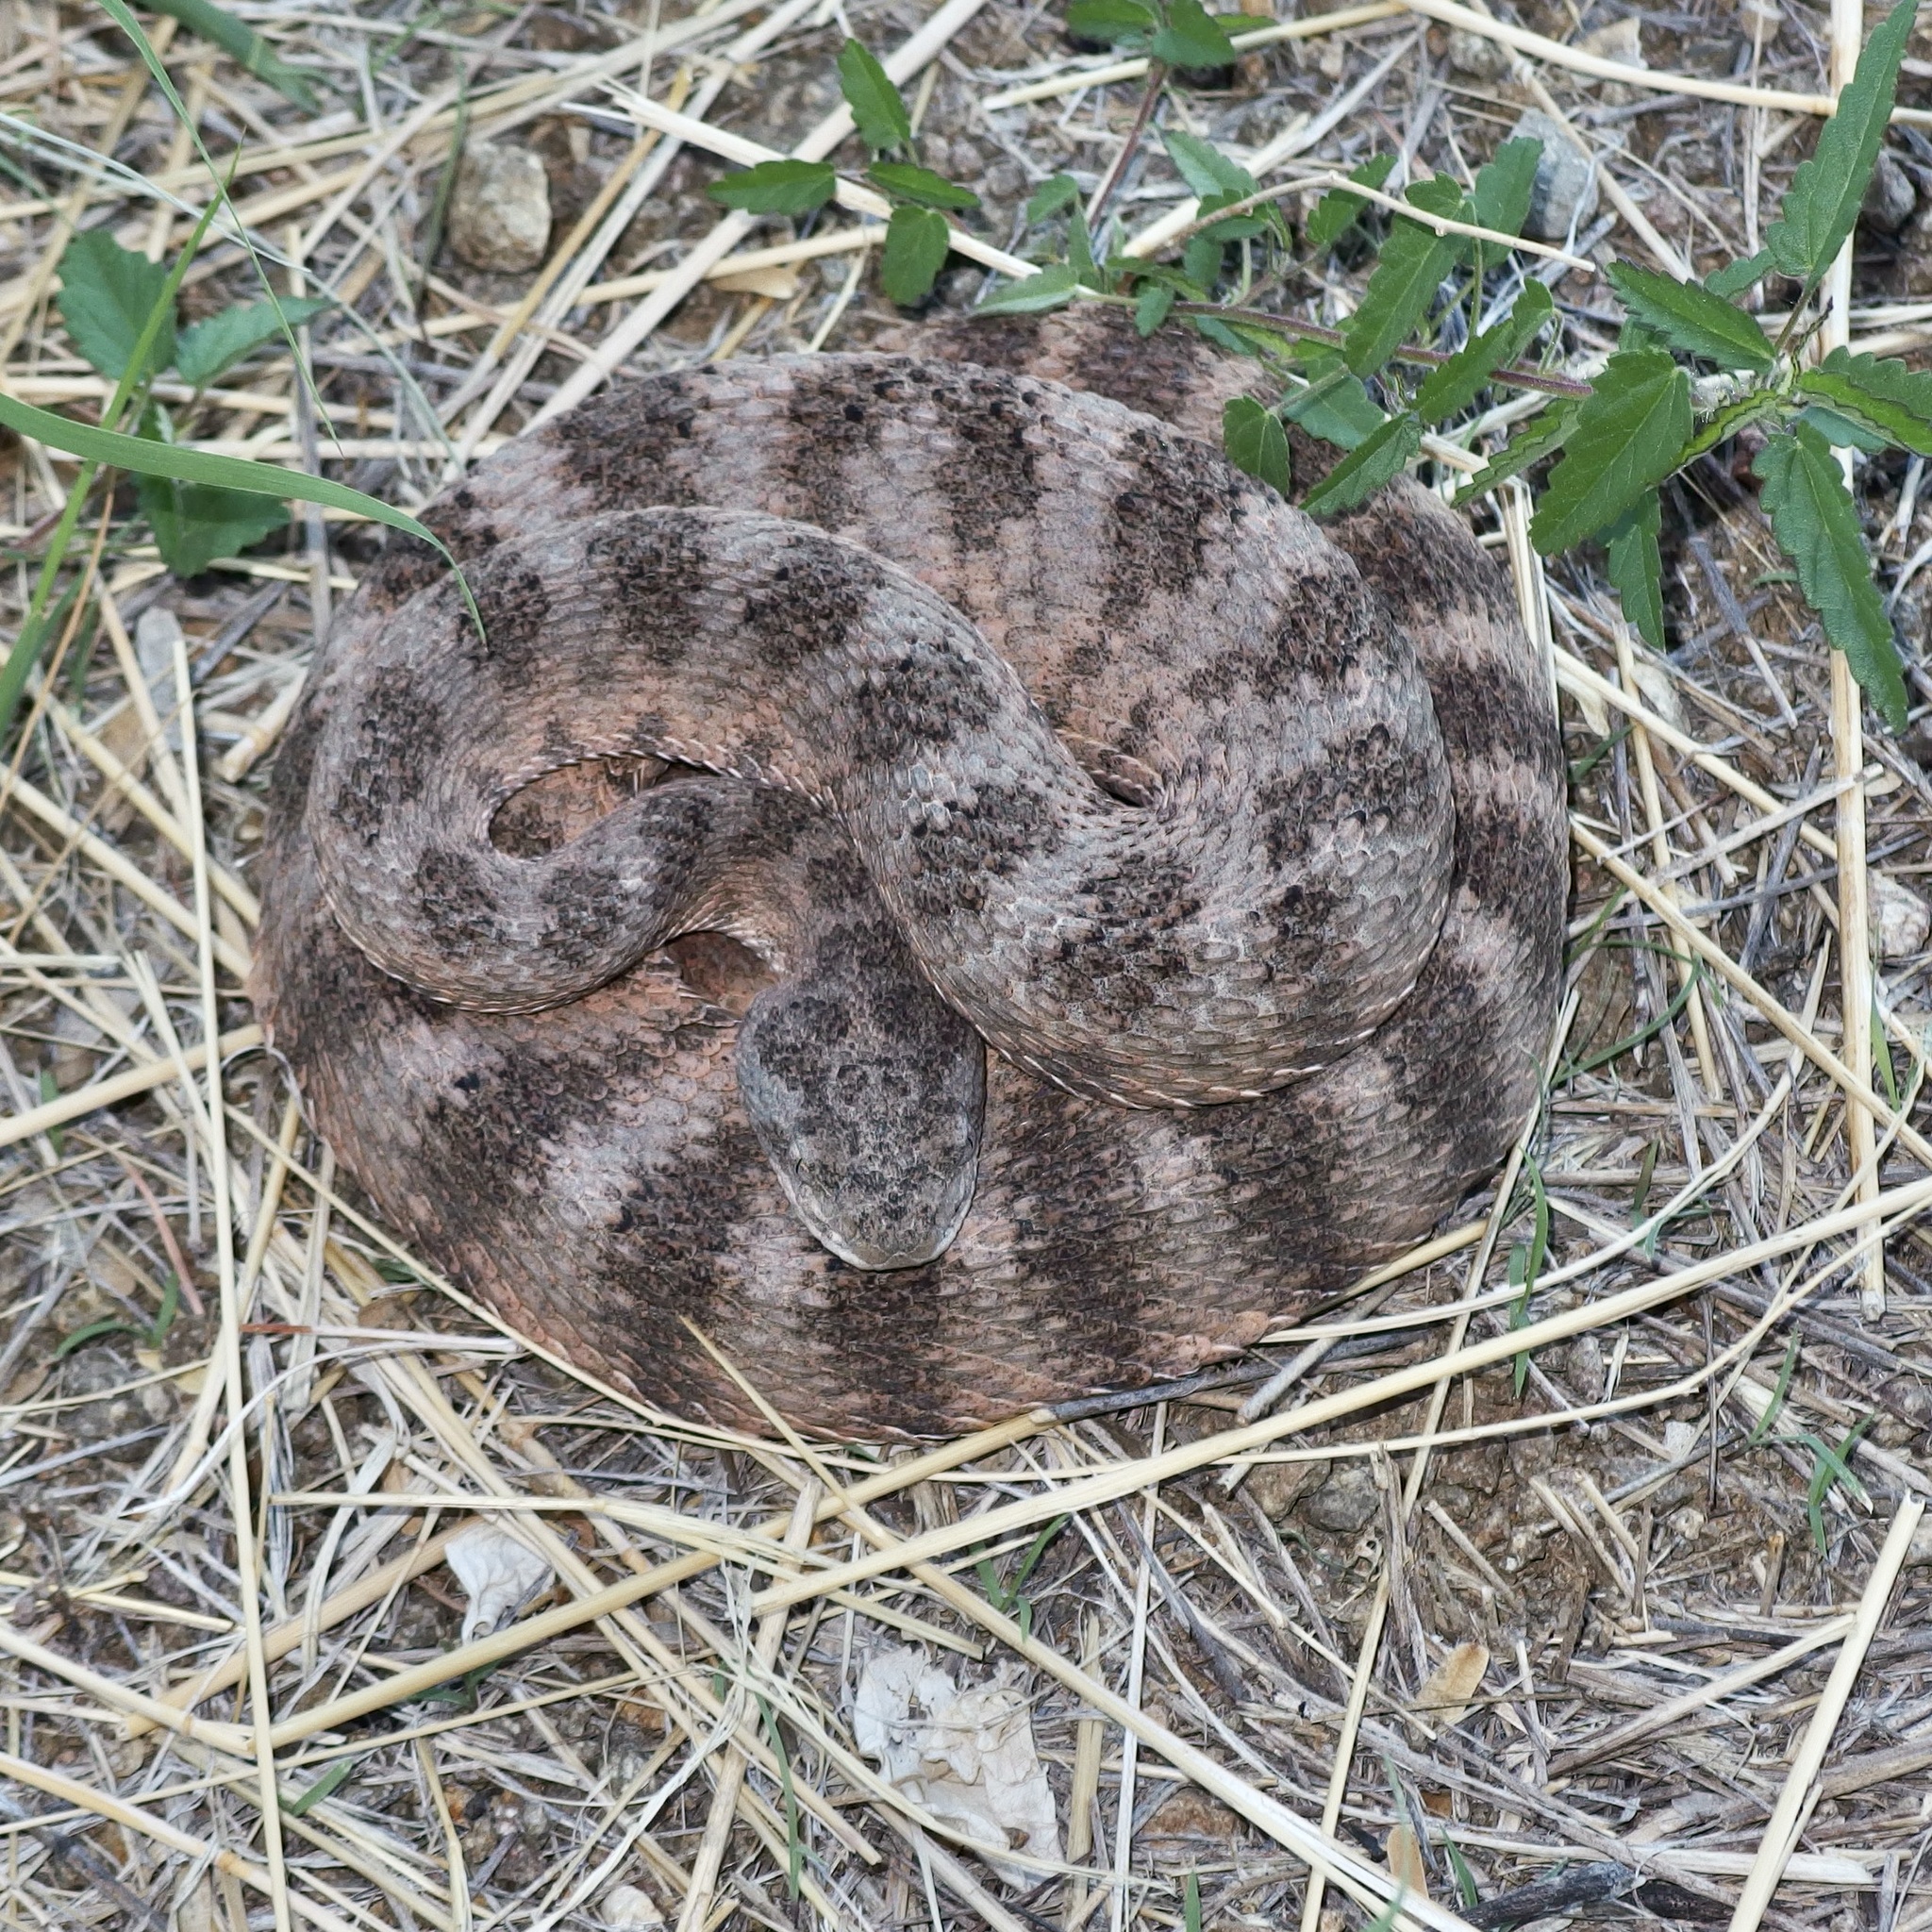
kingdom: Animalia
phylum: Chordata
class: Squamata
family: Viperidae
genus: Crotalus
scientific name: Crotalus tigris
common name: Tiger rattlesnake
